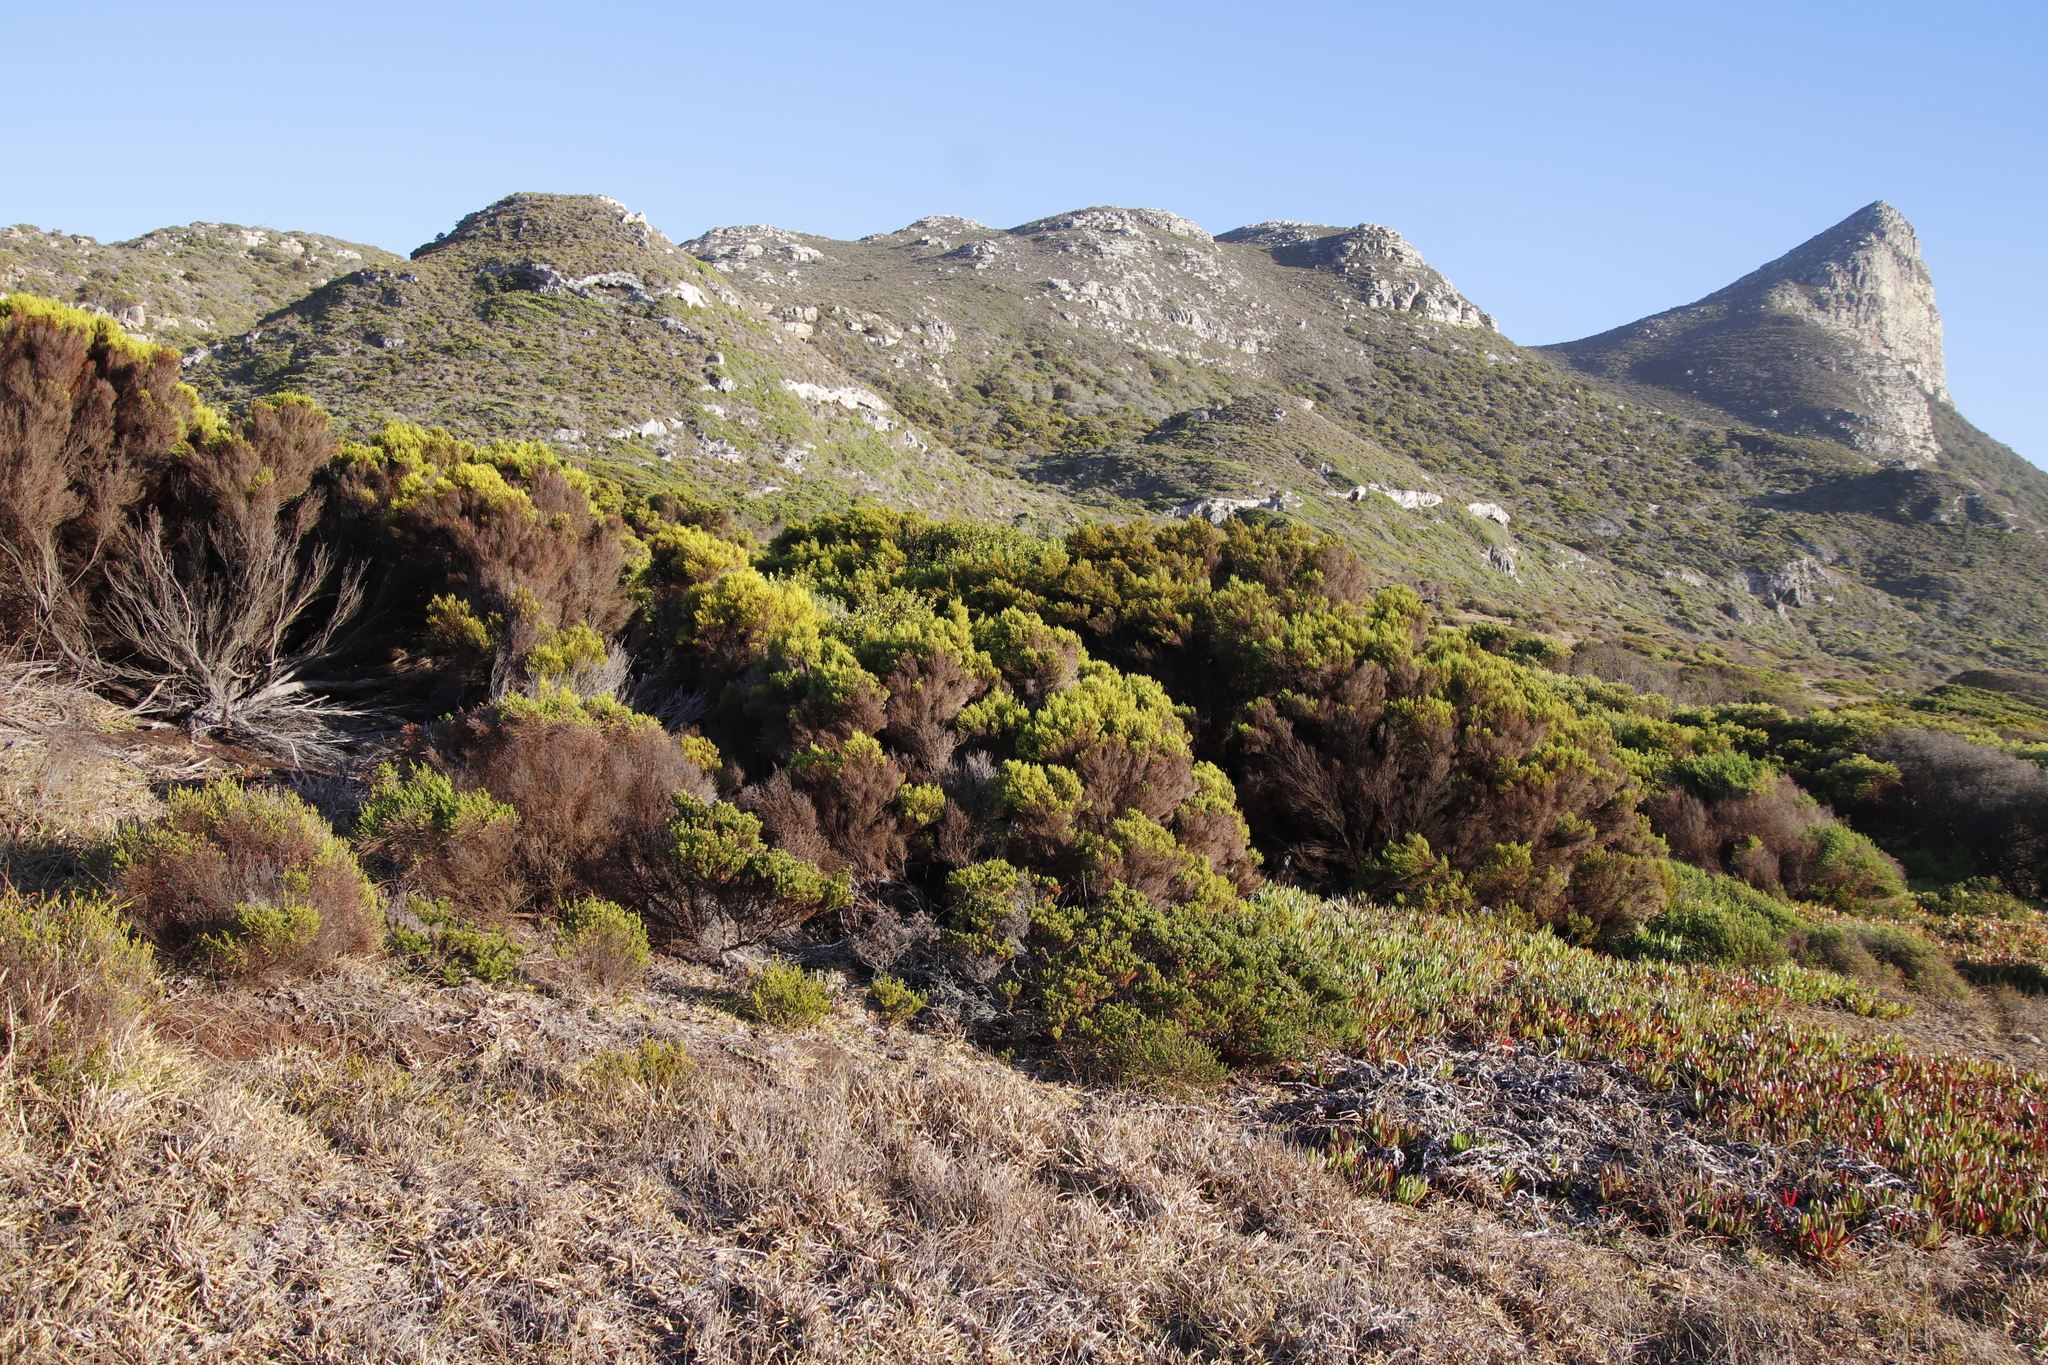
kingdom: Plantae
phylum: Tracheophyta
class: Magnoliopsida
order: Ericales
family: Ericaceae
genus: Erica
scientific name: Erica tristis
